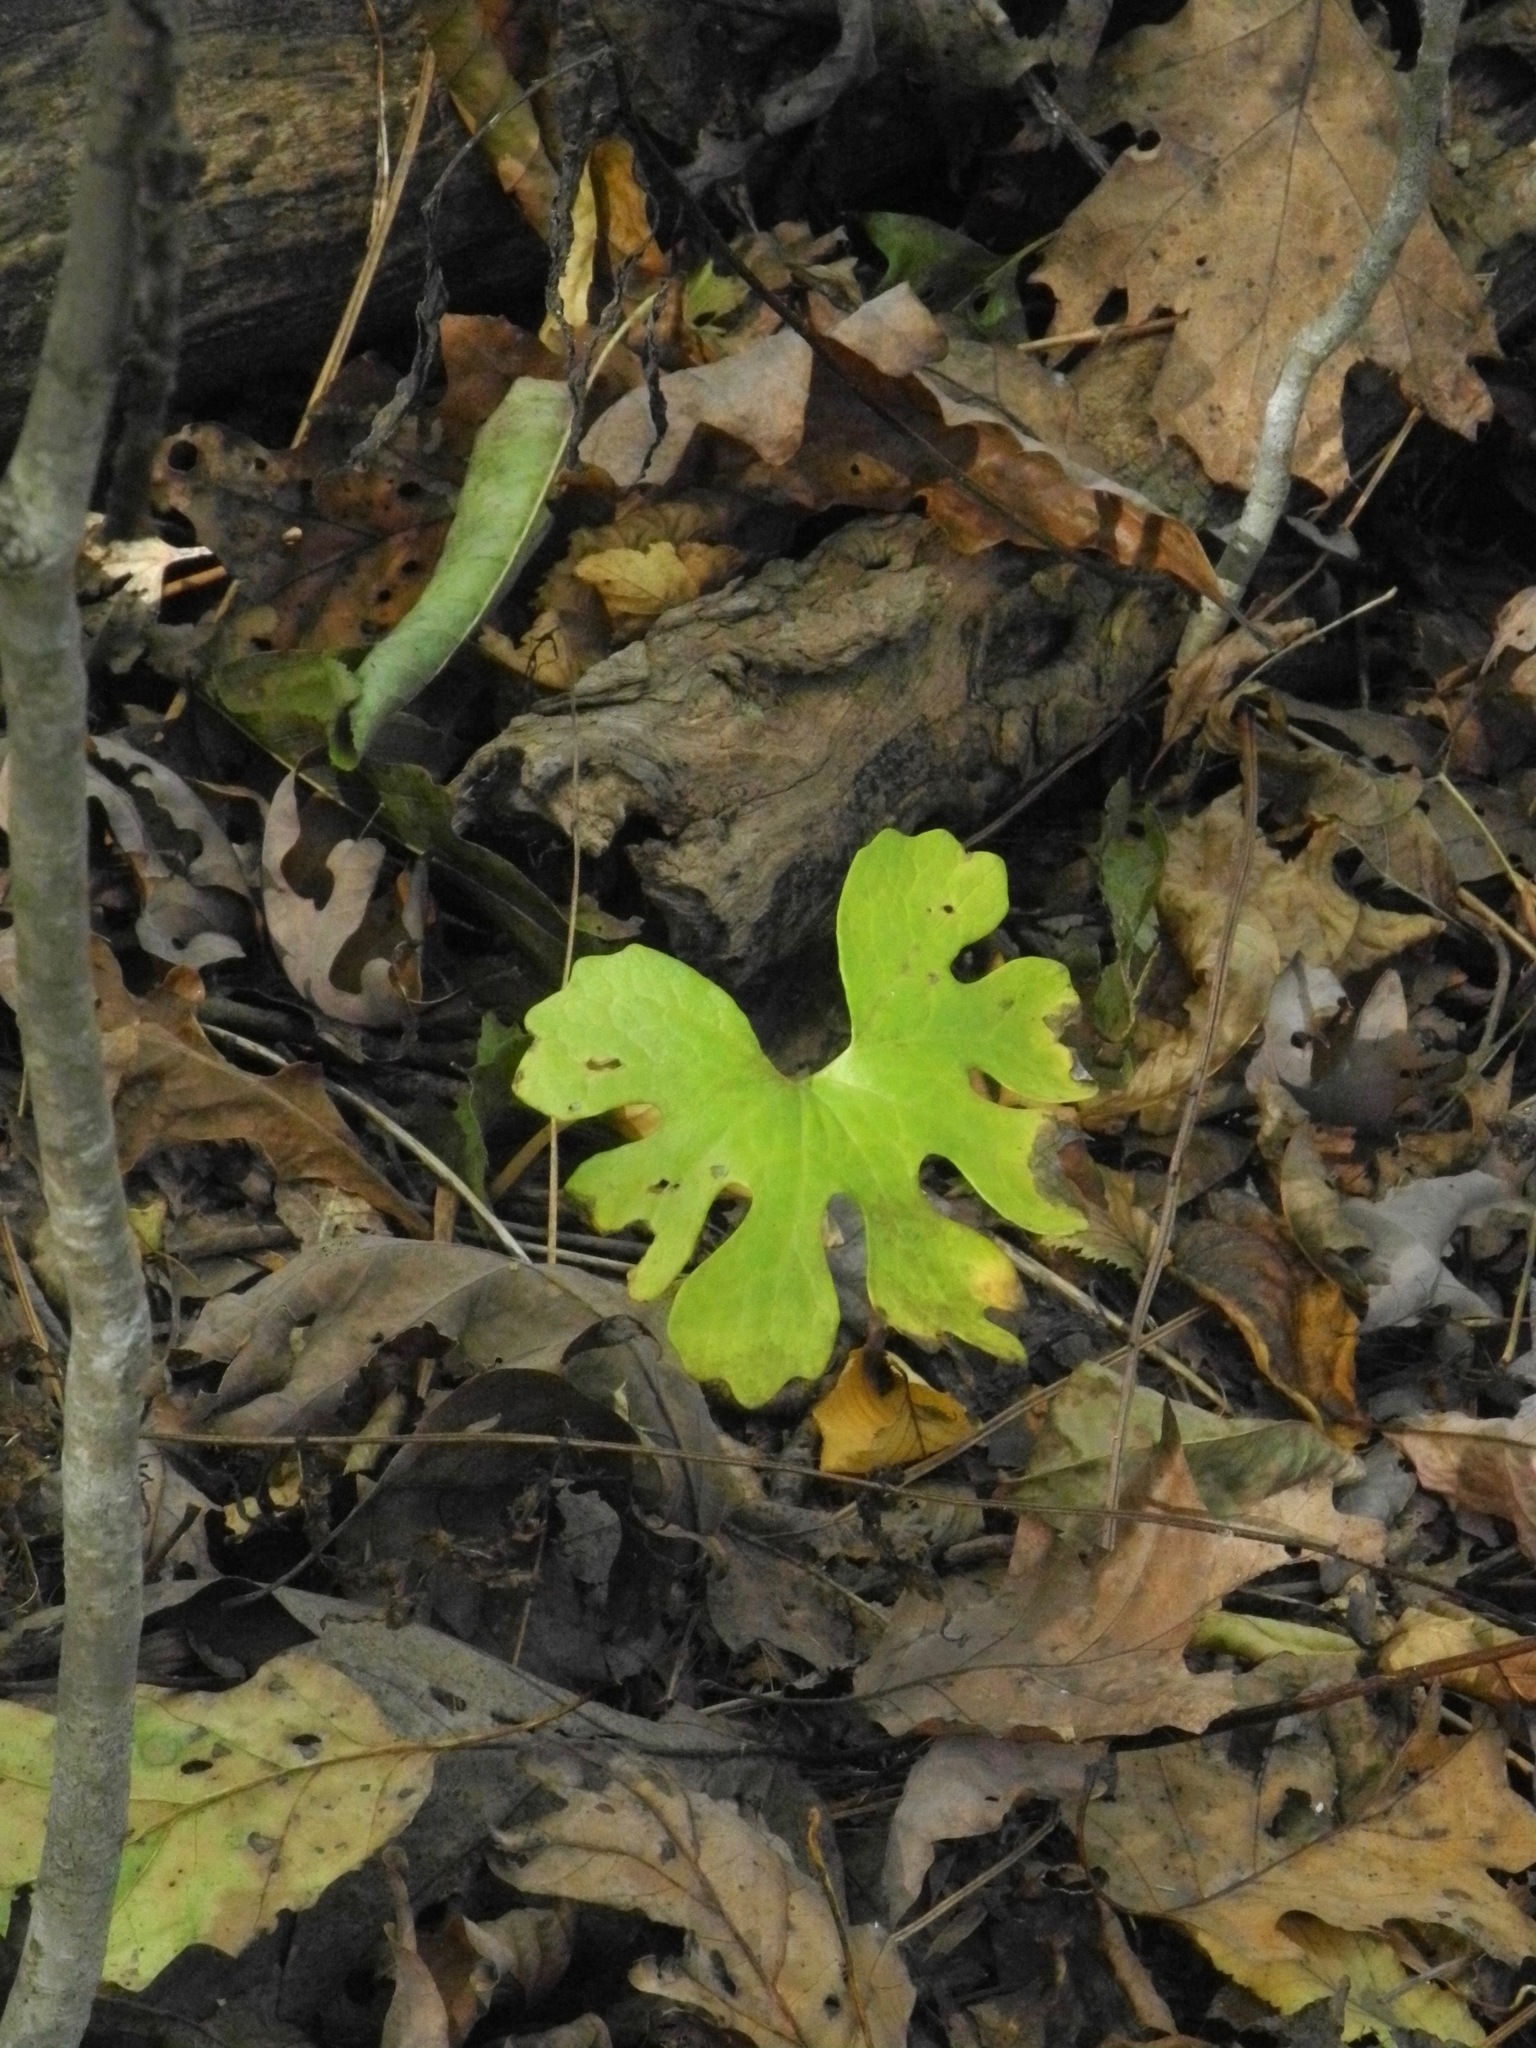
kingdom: Plantae
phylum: Tracheophyta
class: Magnoliopsida
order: Ranunculales
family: Papaveraceae
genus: Sanguinaria
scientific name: Sanguinaria canadensis
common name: Bloodroot
